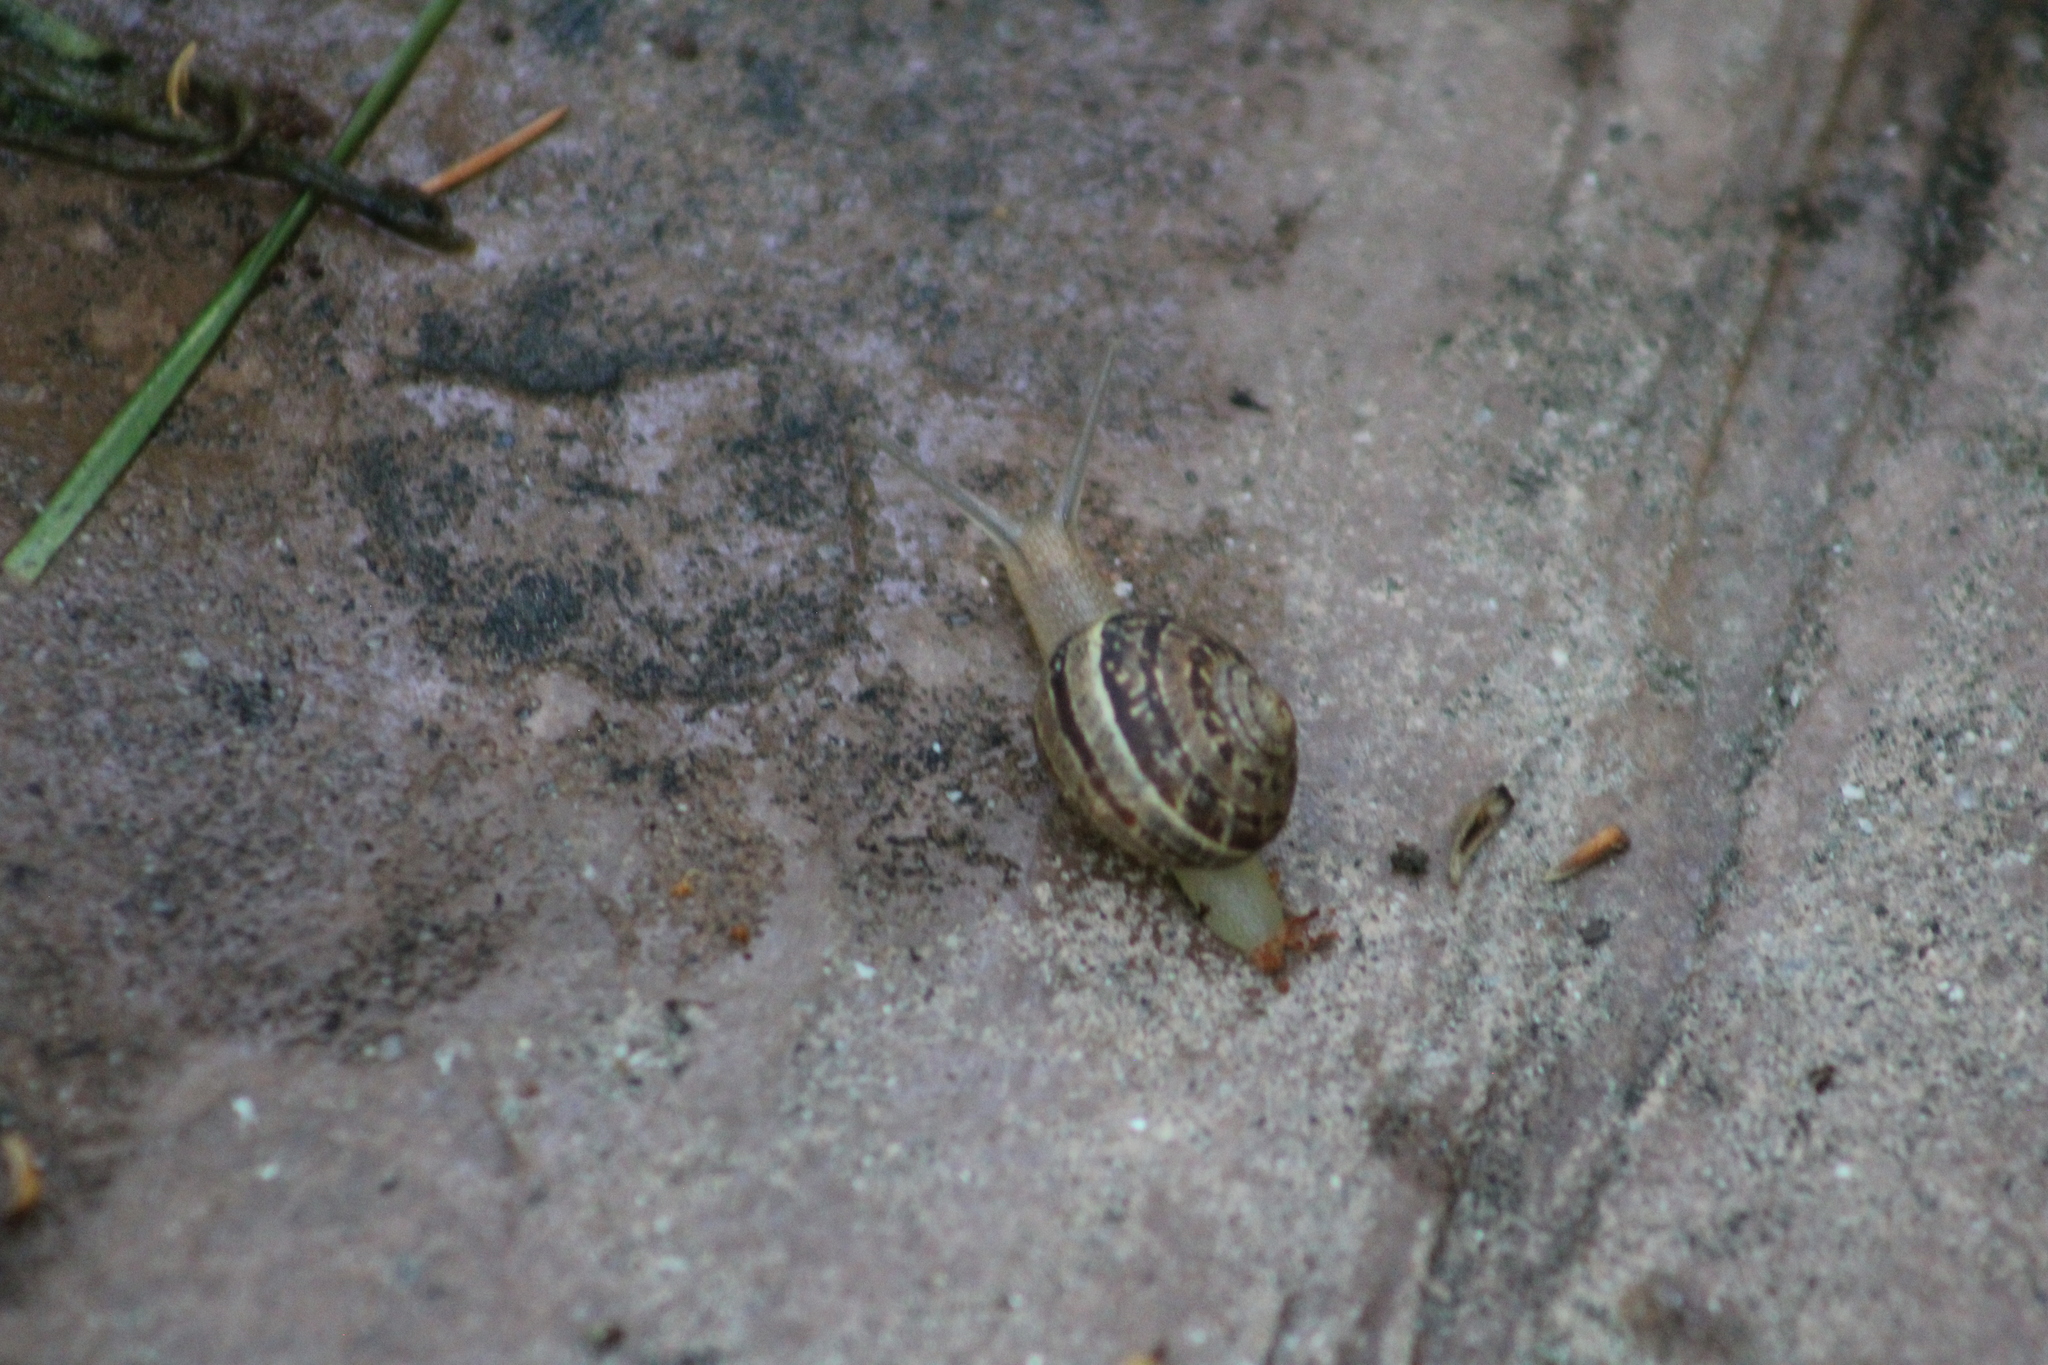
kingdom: Animalia
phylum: Mollusca
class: Gastropoda
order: Stylommatophora
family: Helicidae
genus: Cornu
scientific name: Cornu aspersum
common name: Brown garden snail
